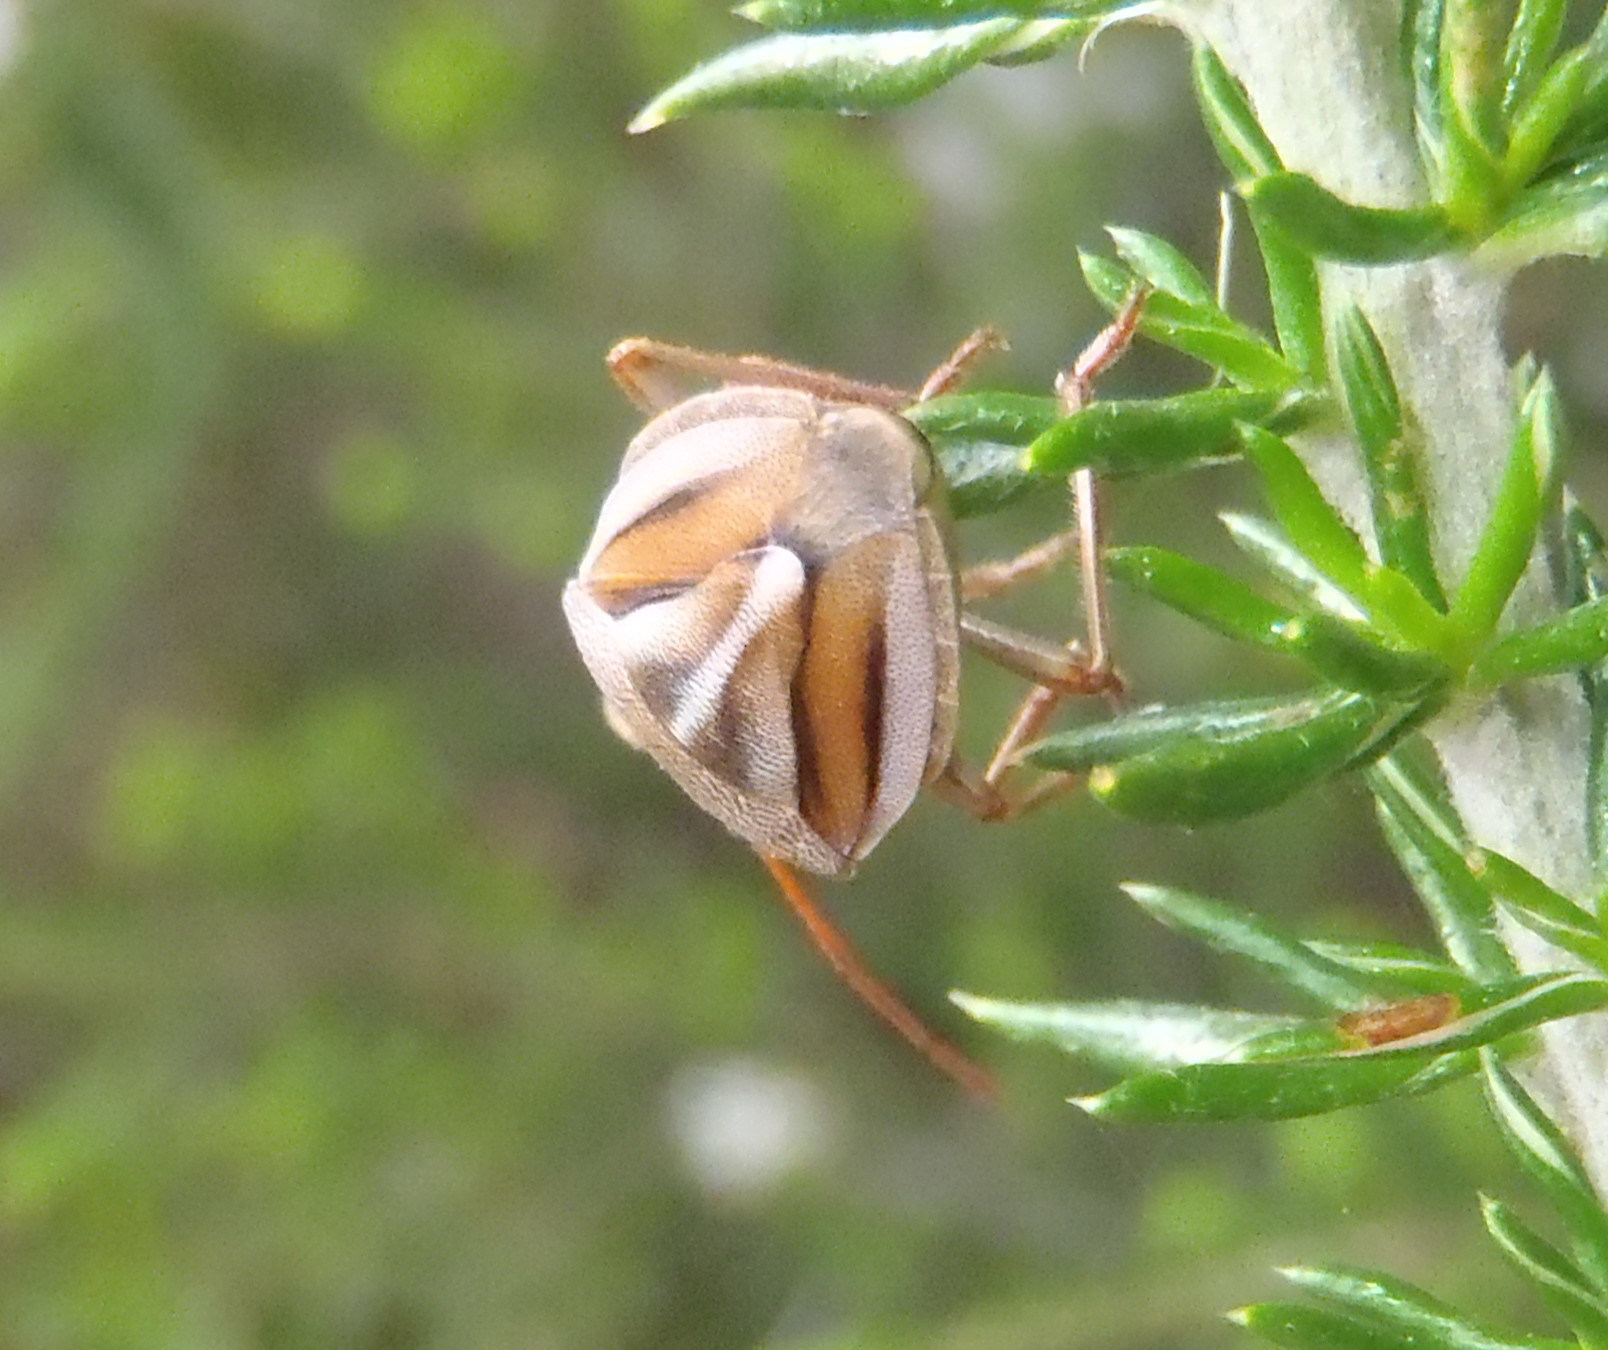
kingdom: Animalia
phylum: Arthropoda
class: Insecta
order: Hemiptera
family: Pentatomidae
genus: Theloris
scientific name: Theloris costata
